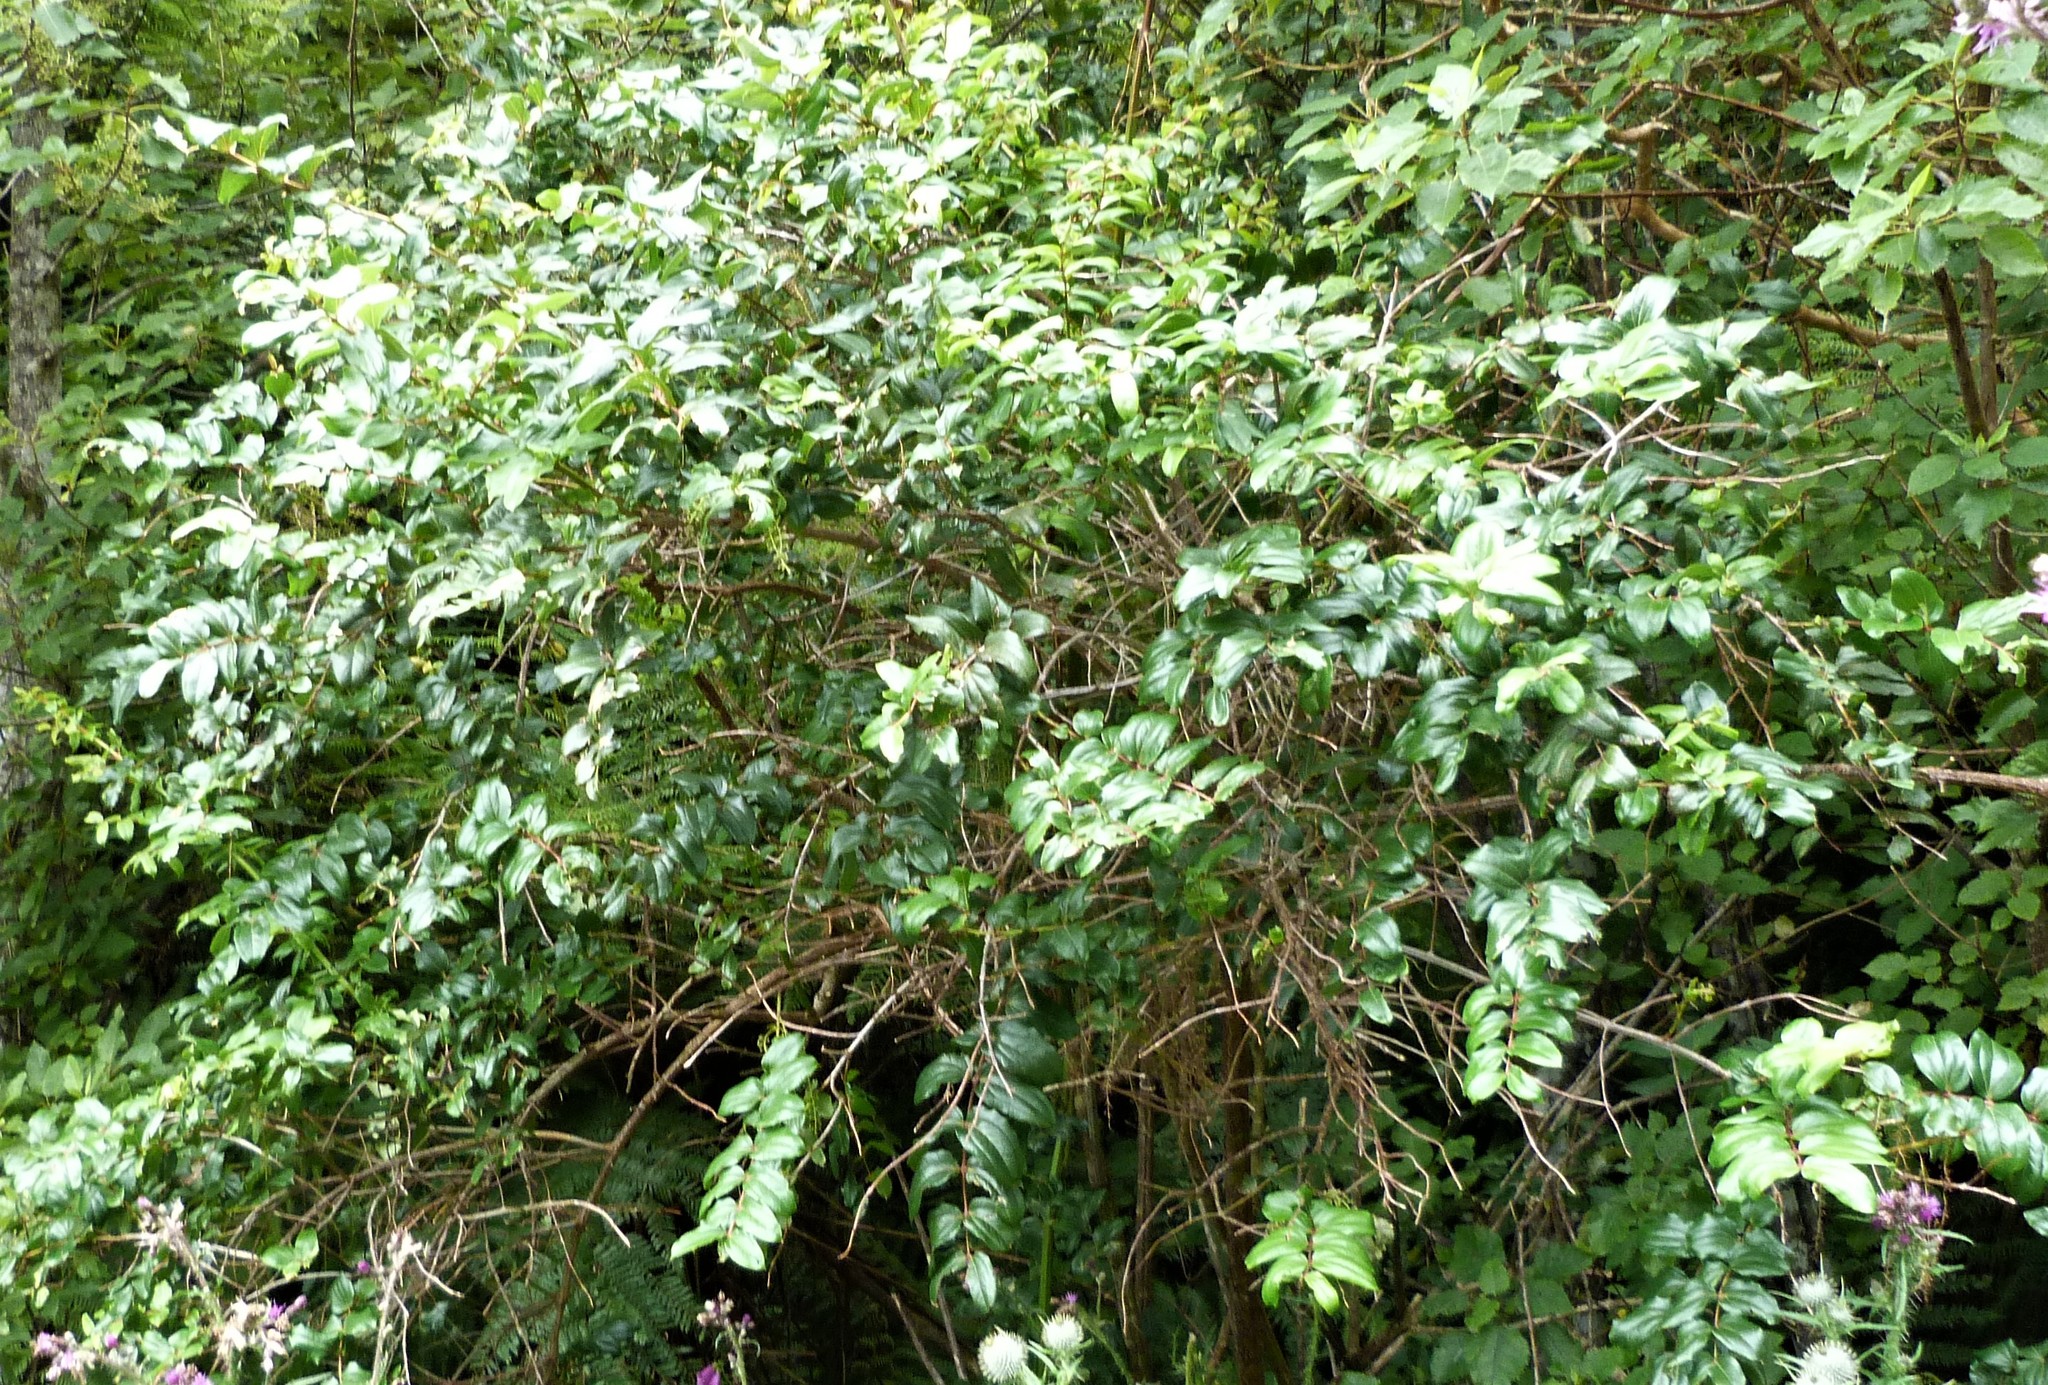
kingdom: Plantae
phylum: Tracheophyta
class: Magnoliopsida
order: Cucurbitales
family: Coriariaceae
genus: Coriaria
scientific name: Coriaria arborea
